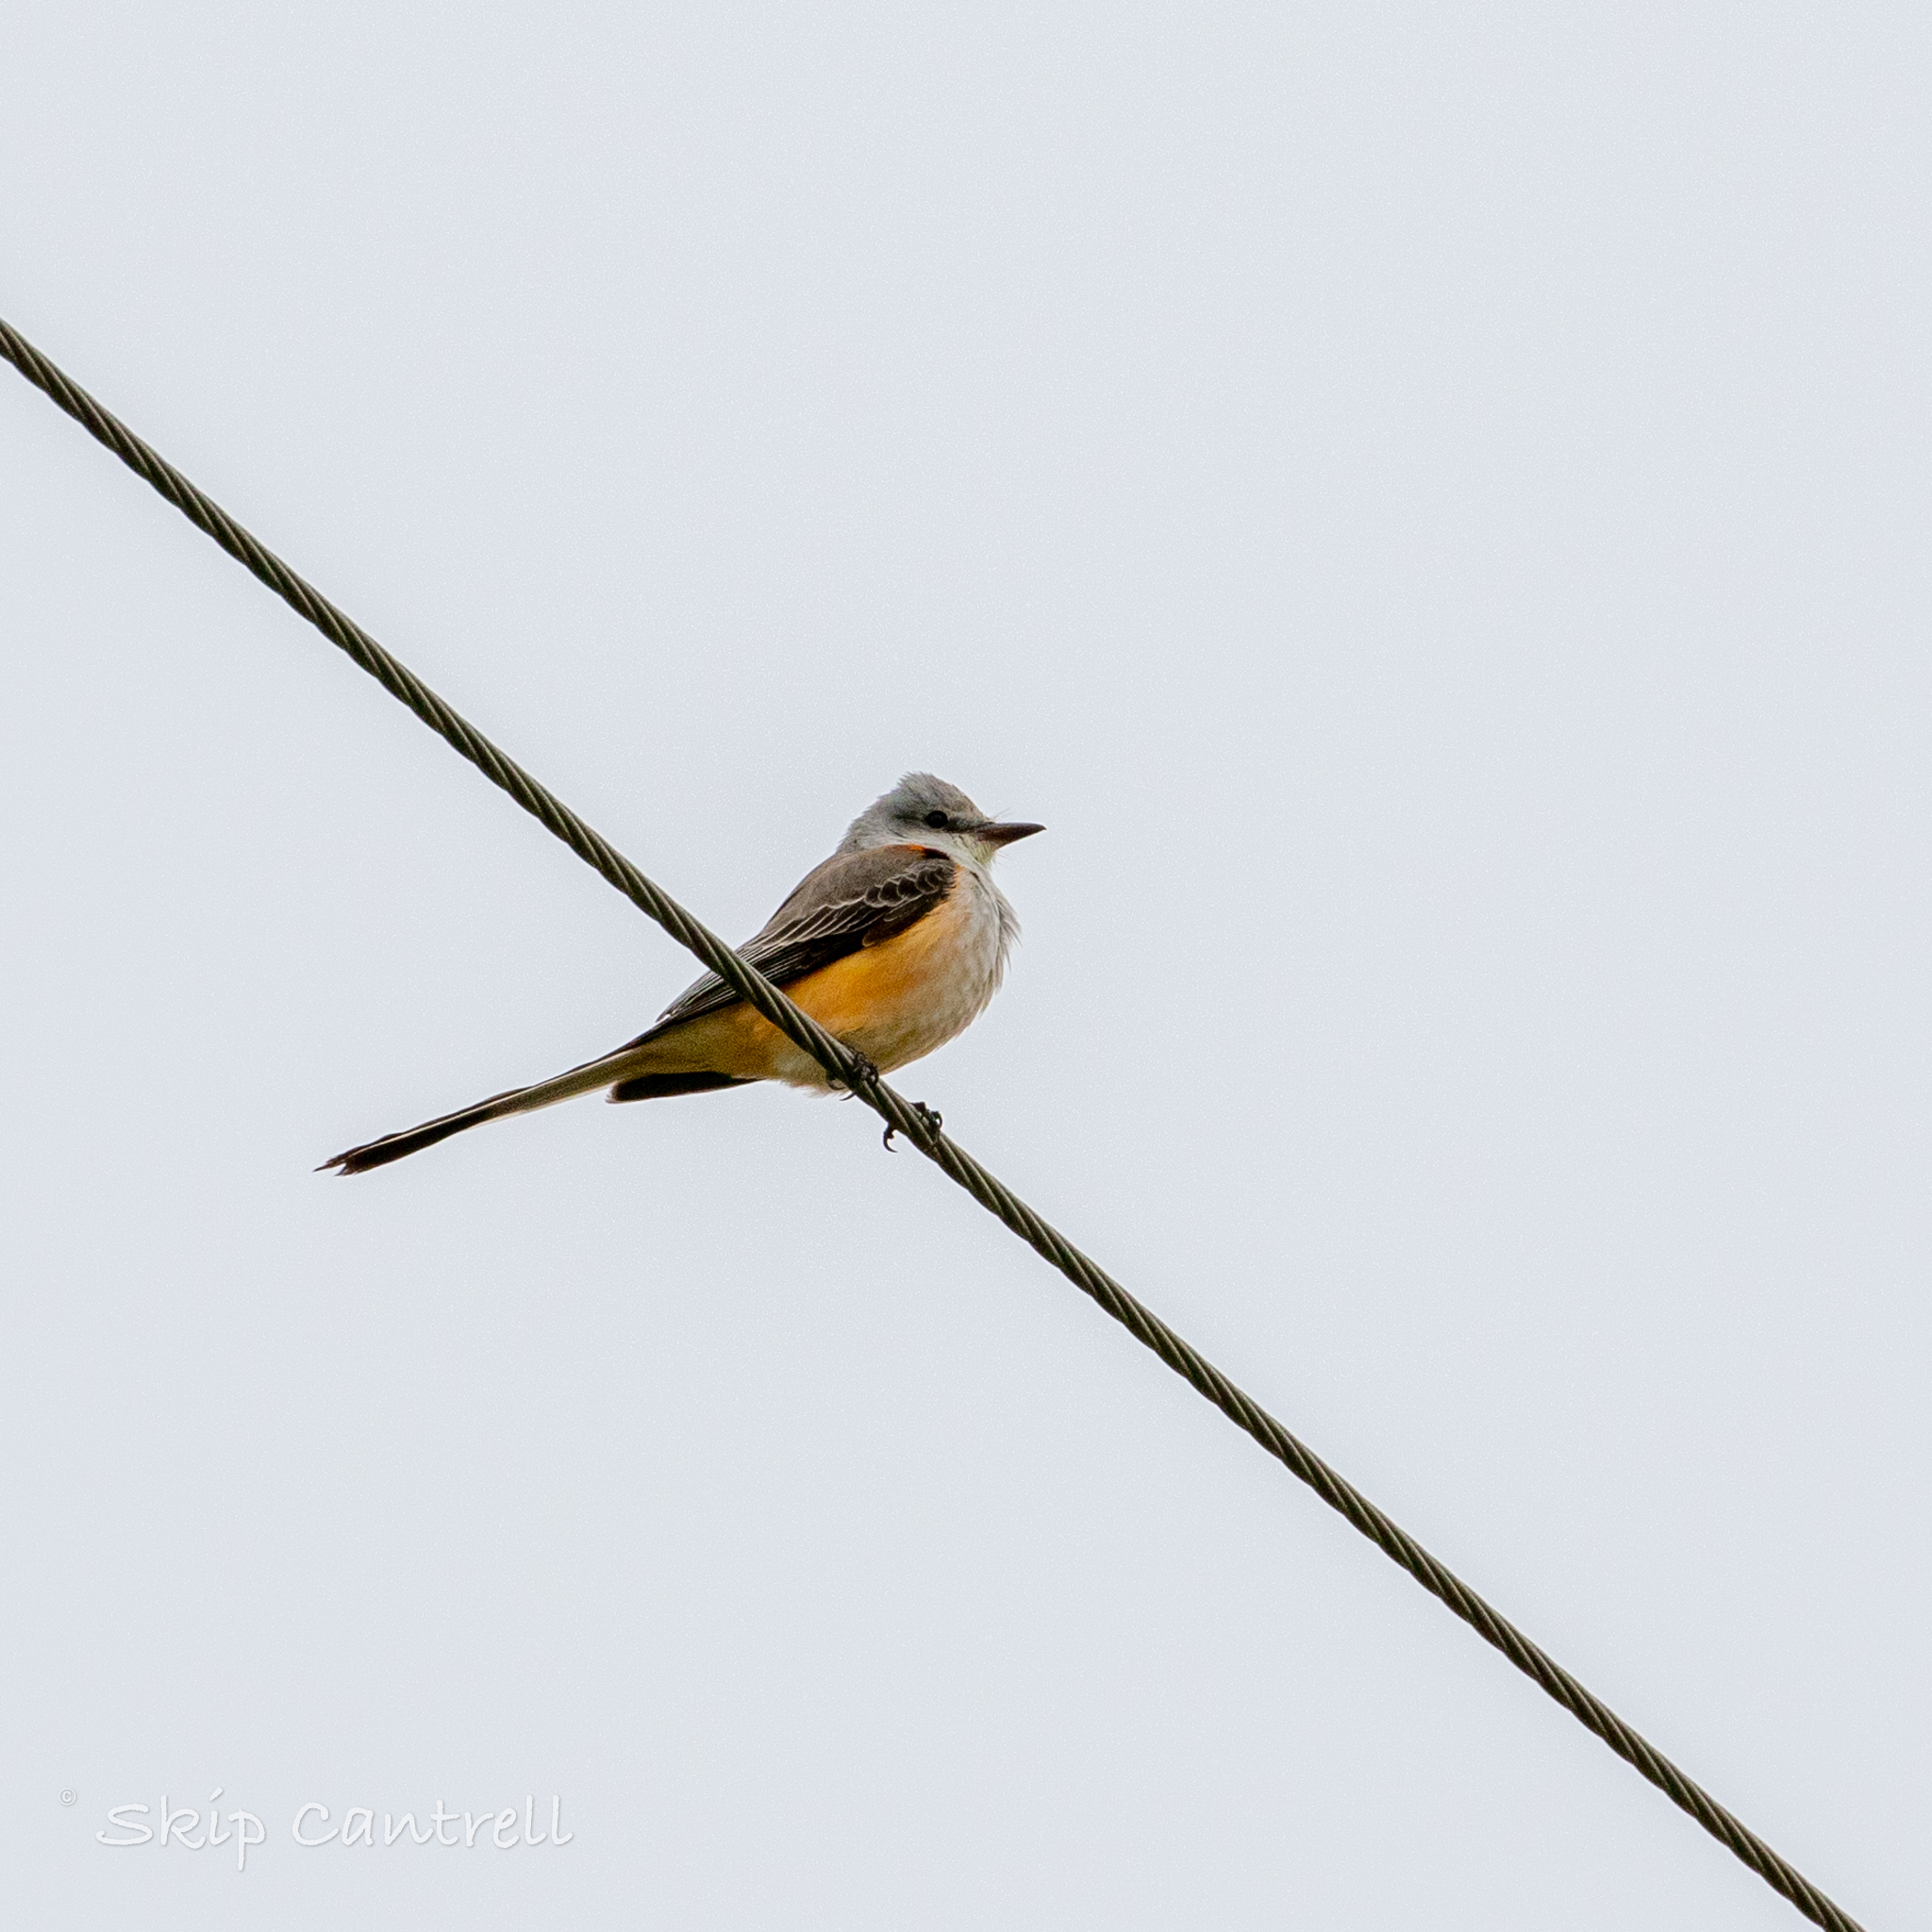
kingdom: Animalia
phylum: Chordata
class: Aves
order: Passeriformes
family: Tyrannidae
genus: Tyrannus
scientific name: Tyrannus forficatus
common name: Scissor-tailed flycatcher
